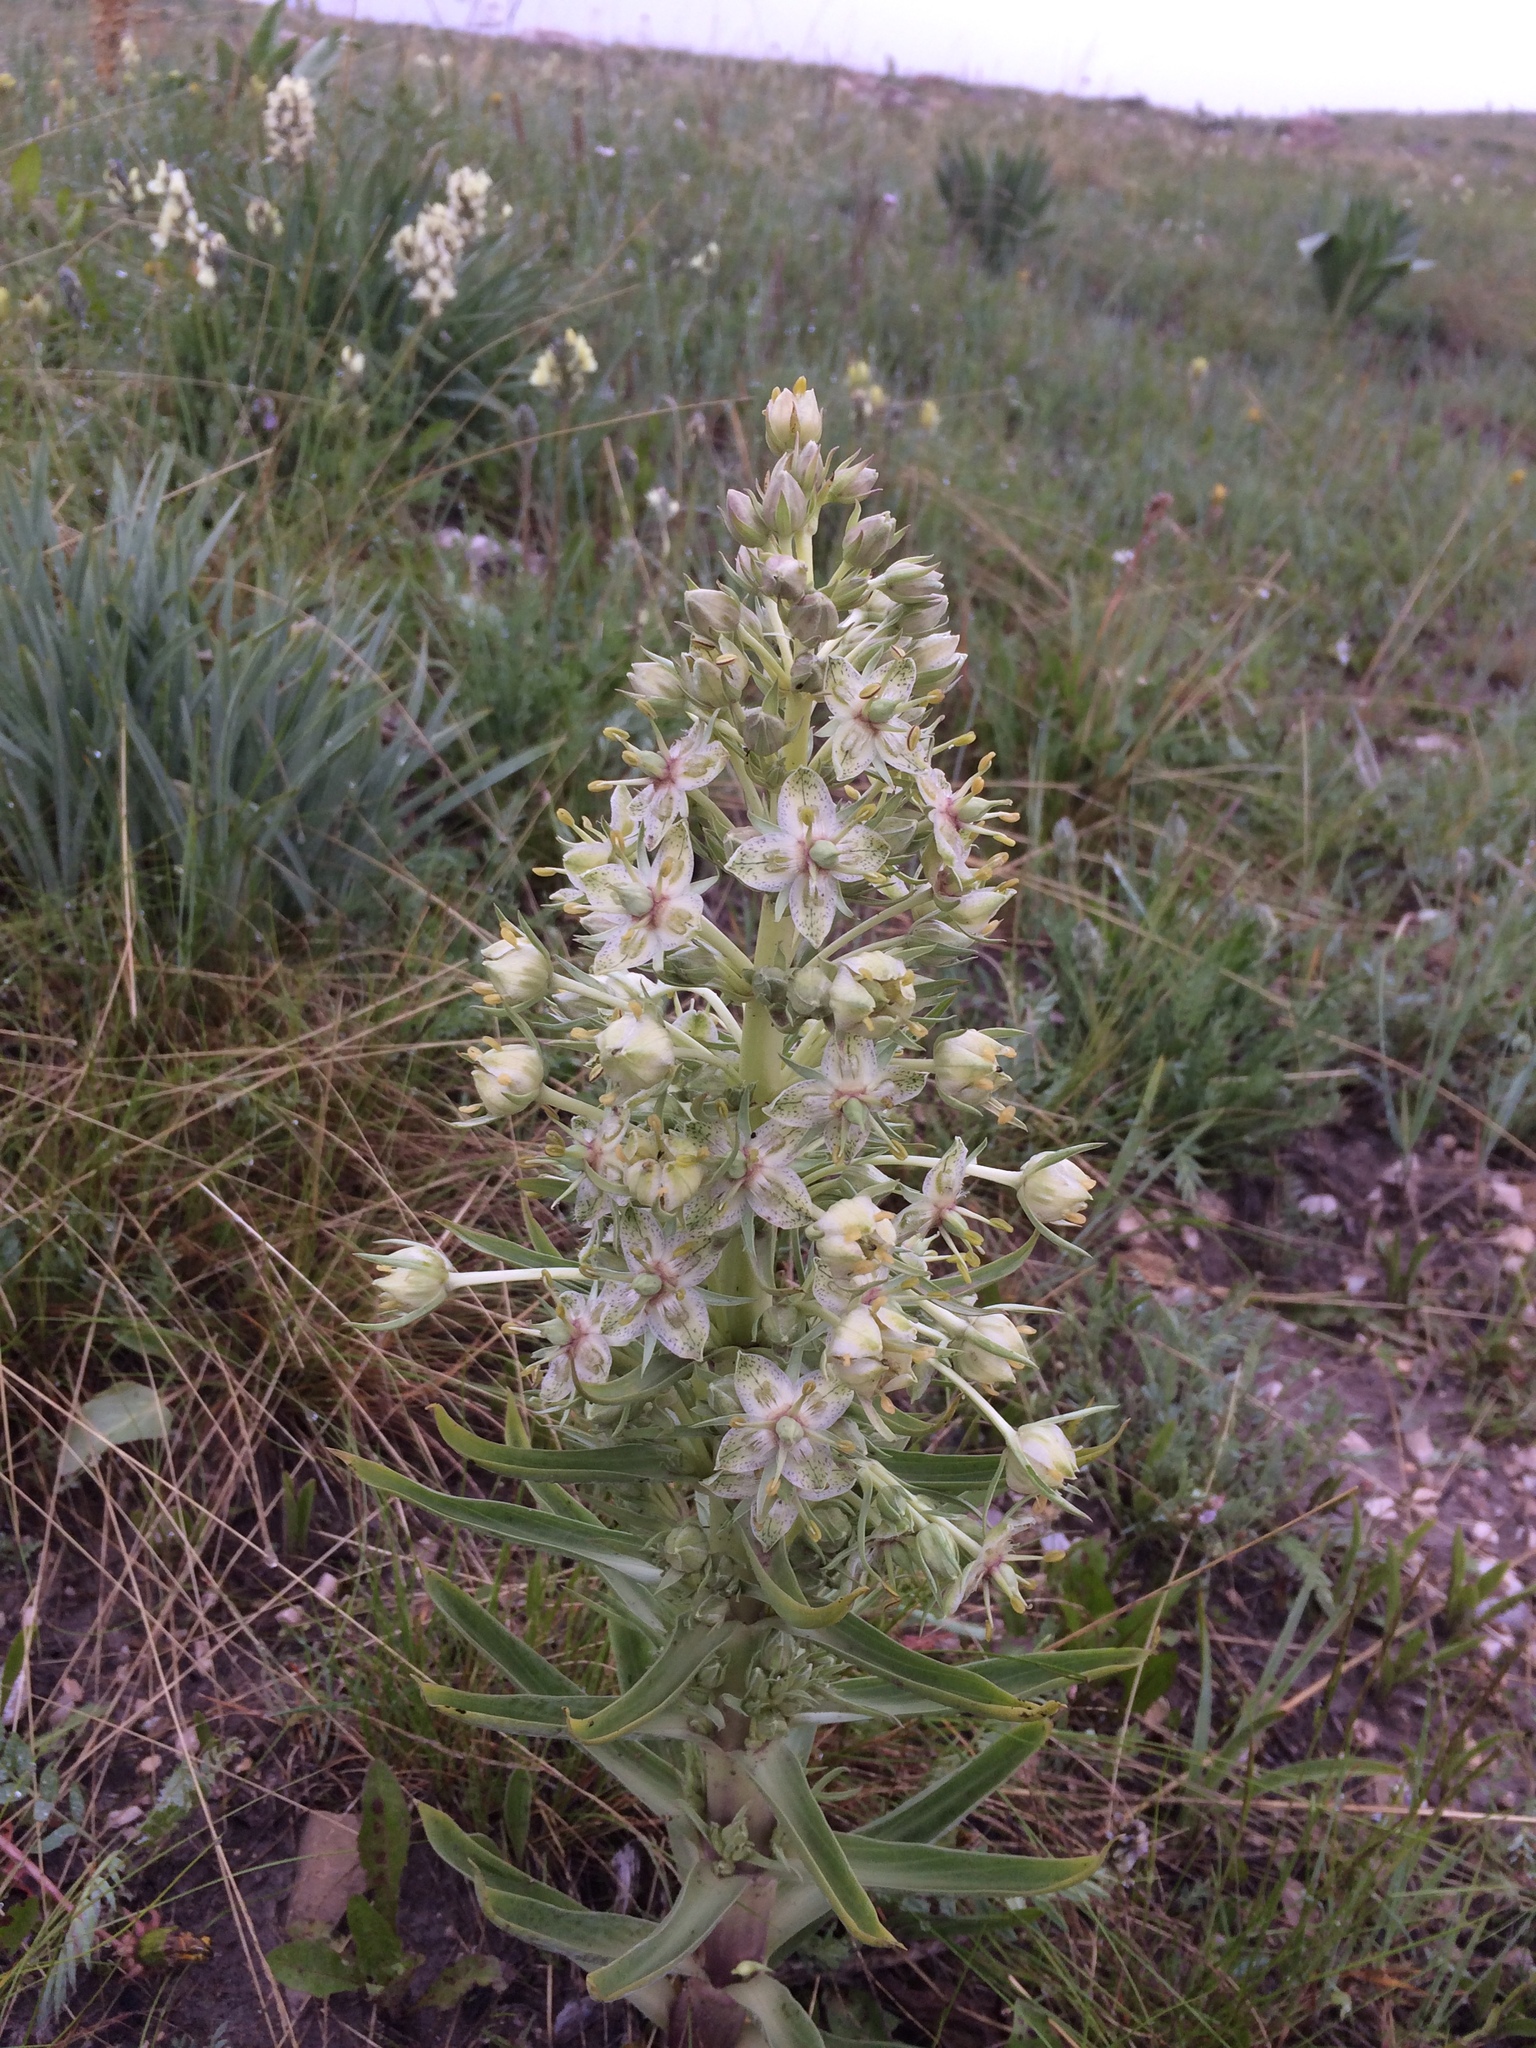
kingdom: Plantae
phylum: Tracheophyta
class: Magnoliopsida
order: Gentianales
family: Gentianaceae
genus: Frasera
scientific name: Frasera speciosa
